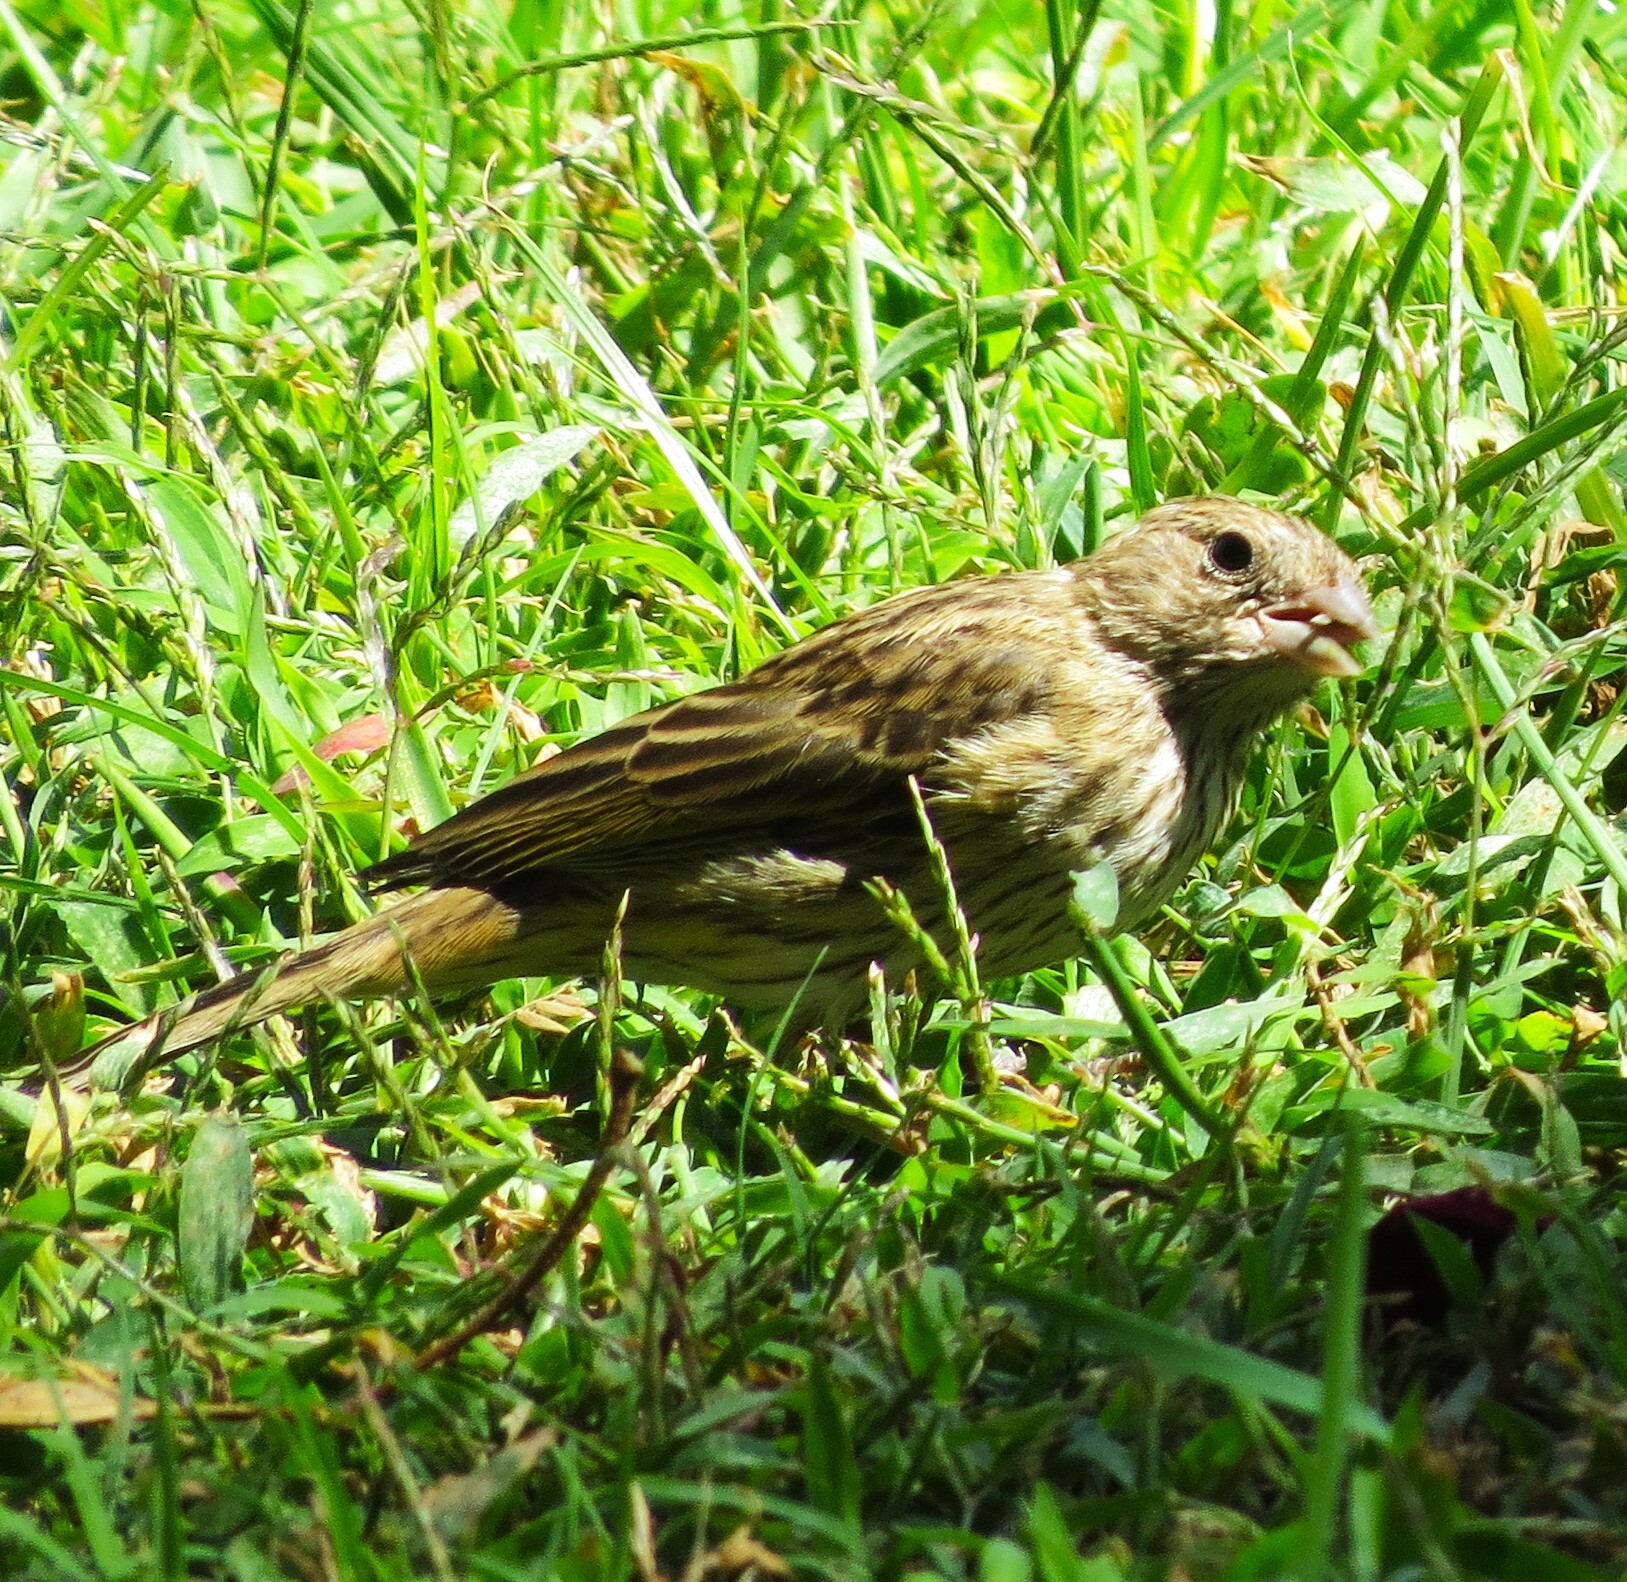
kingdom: Animalia
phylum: Chordata
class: Aves
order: Passeriformes
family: Thraupidae
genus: Sicalis
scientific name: Sicalis flaveola
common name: Saffron finch
